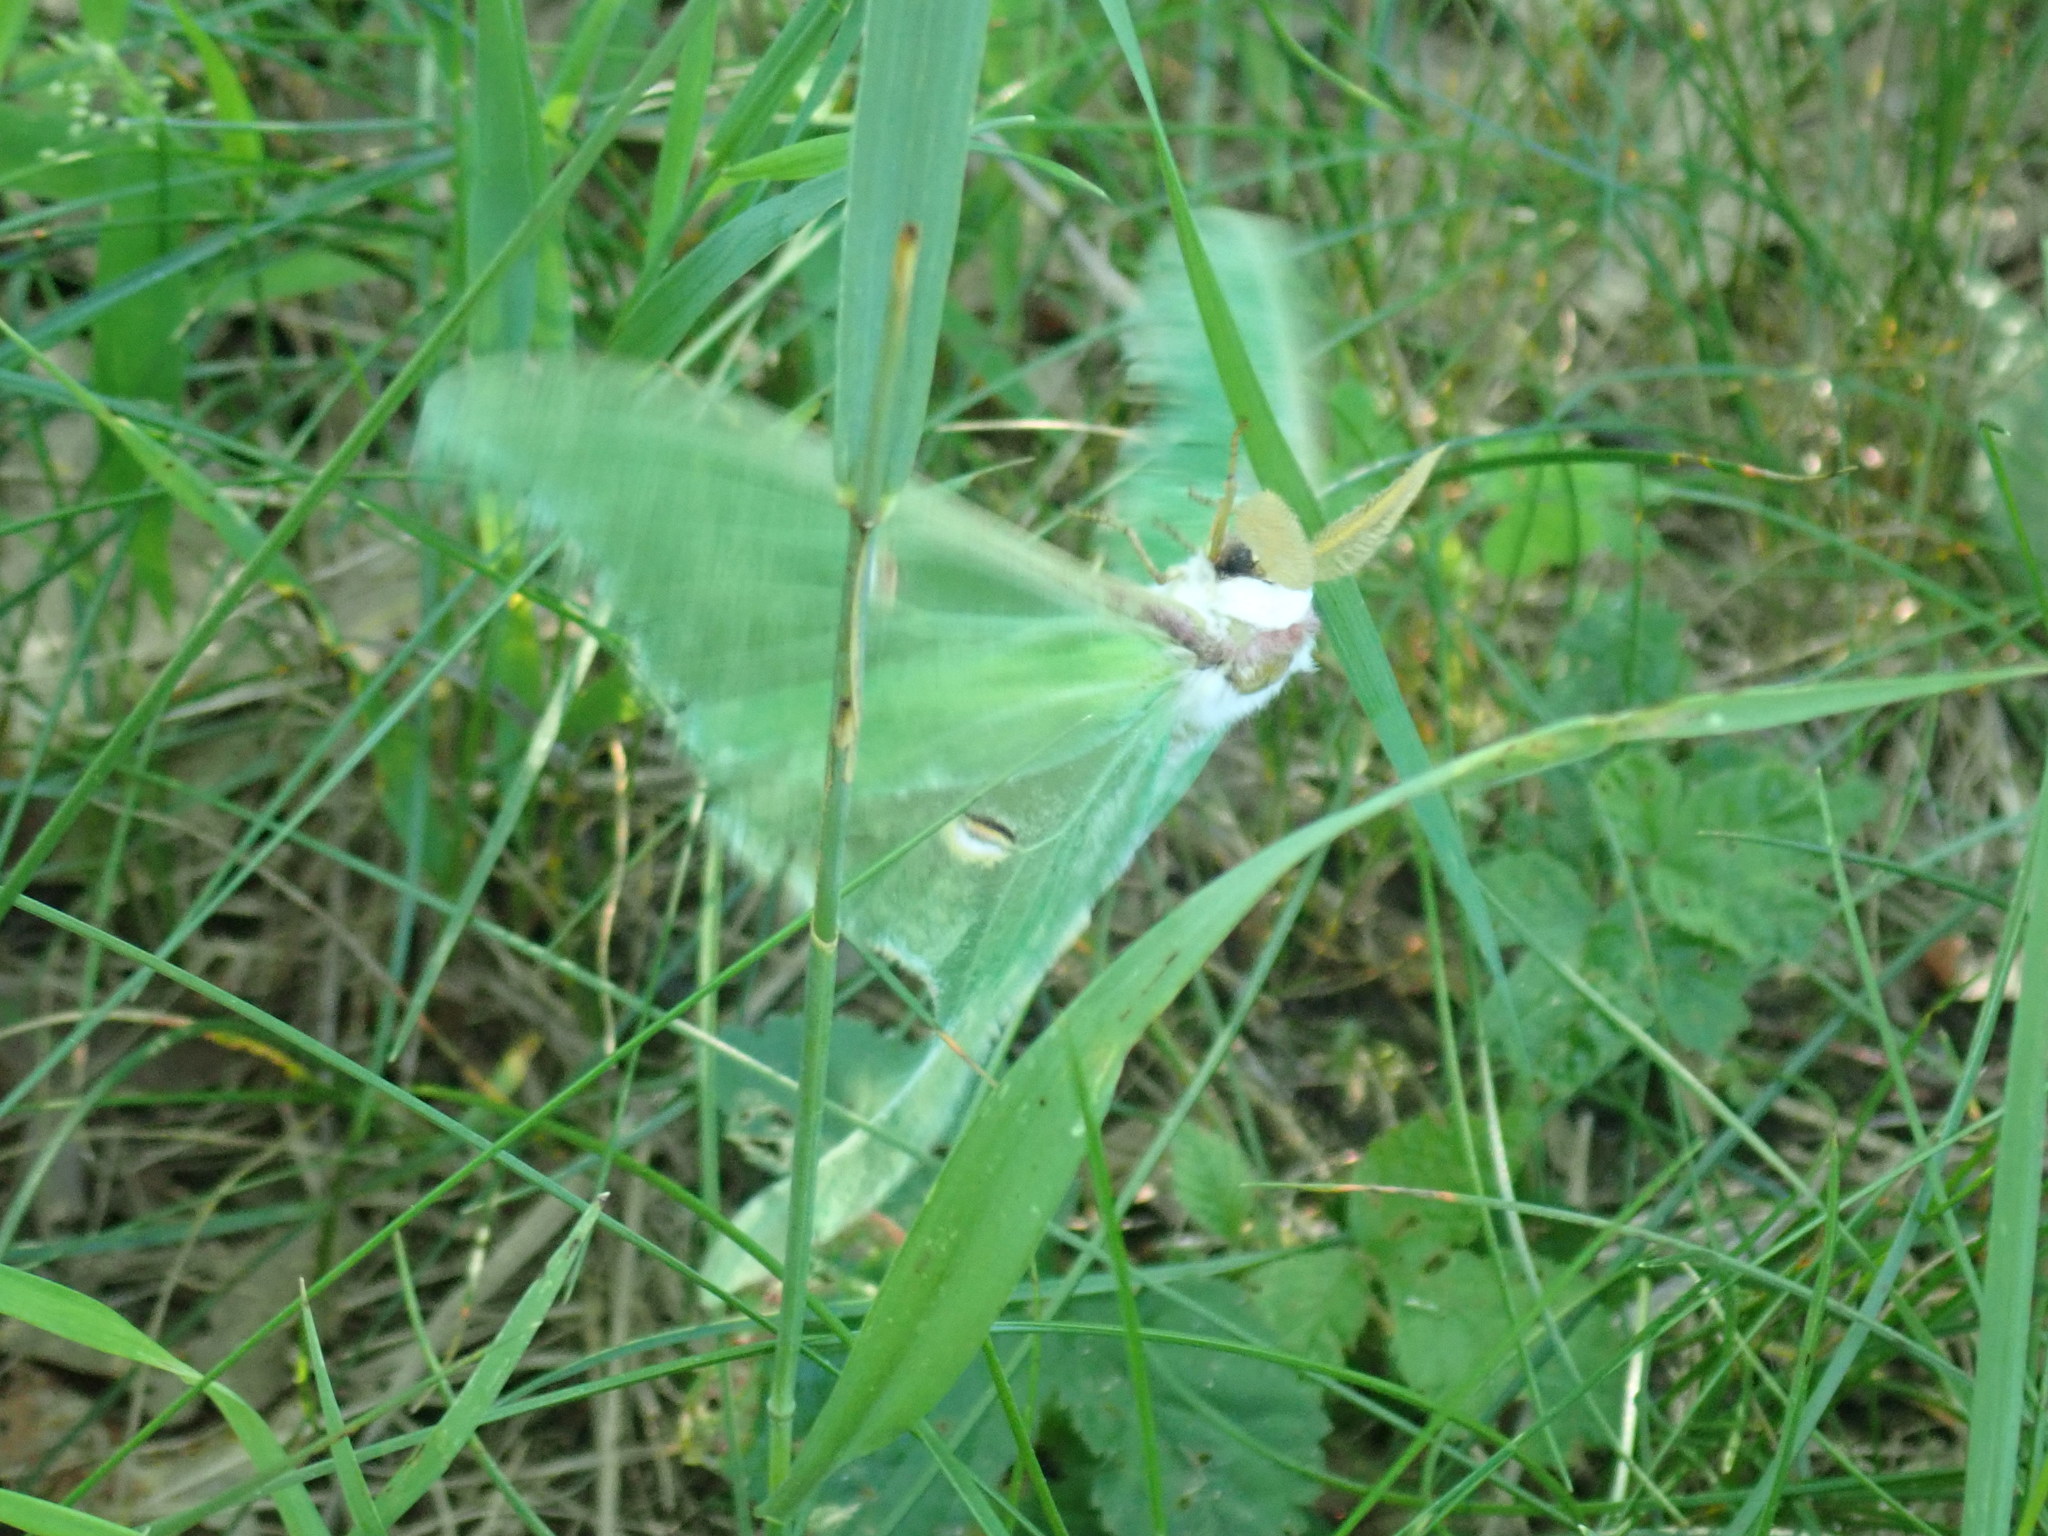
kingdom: Animalia
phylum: Arthropoda
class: Insecta
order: Lepidoptera
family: Saturniidae
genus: Actias
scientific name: Actias luna
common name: Luna moth
